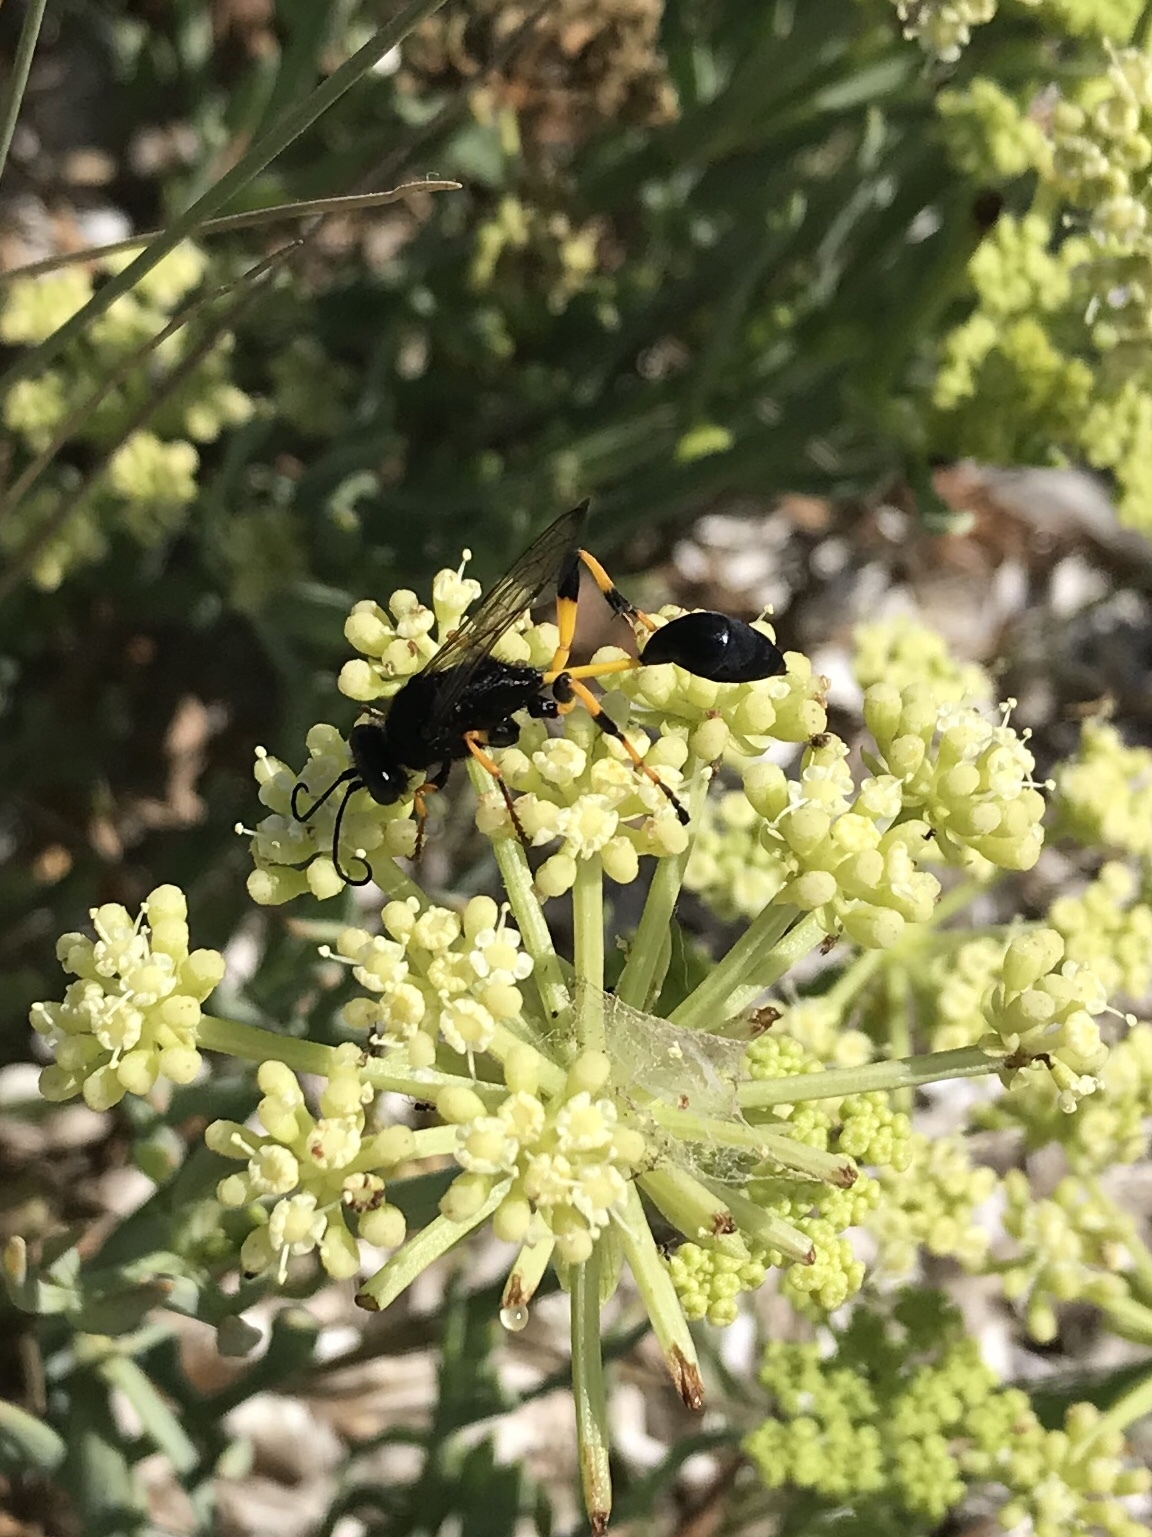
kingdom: Animalia
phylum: Arthropoda
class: Insecta
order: Hymenoptera
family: Sphecidae
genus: Sceliphron
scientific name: Sceliphron spirifex
